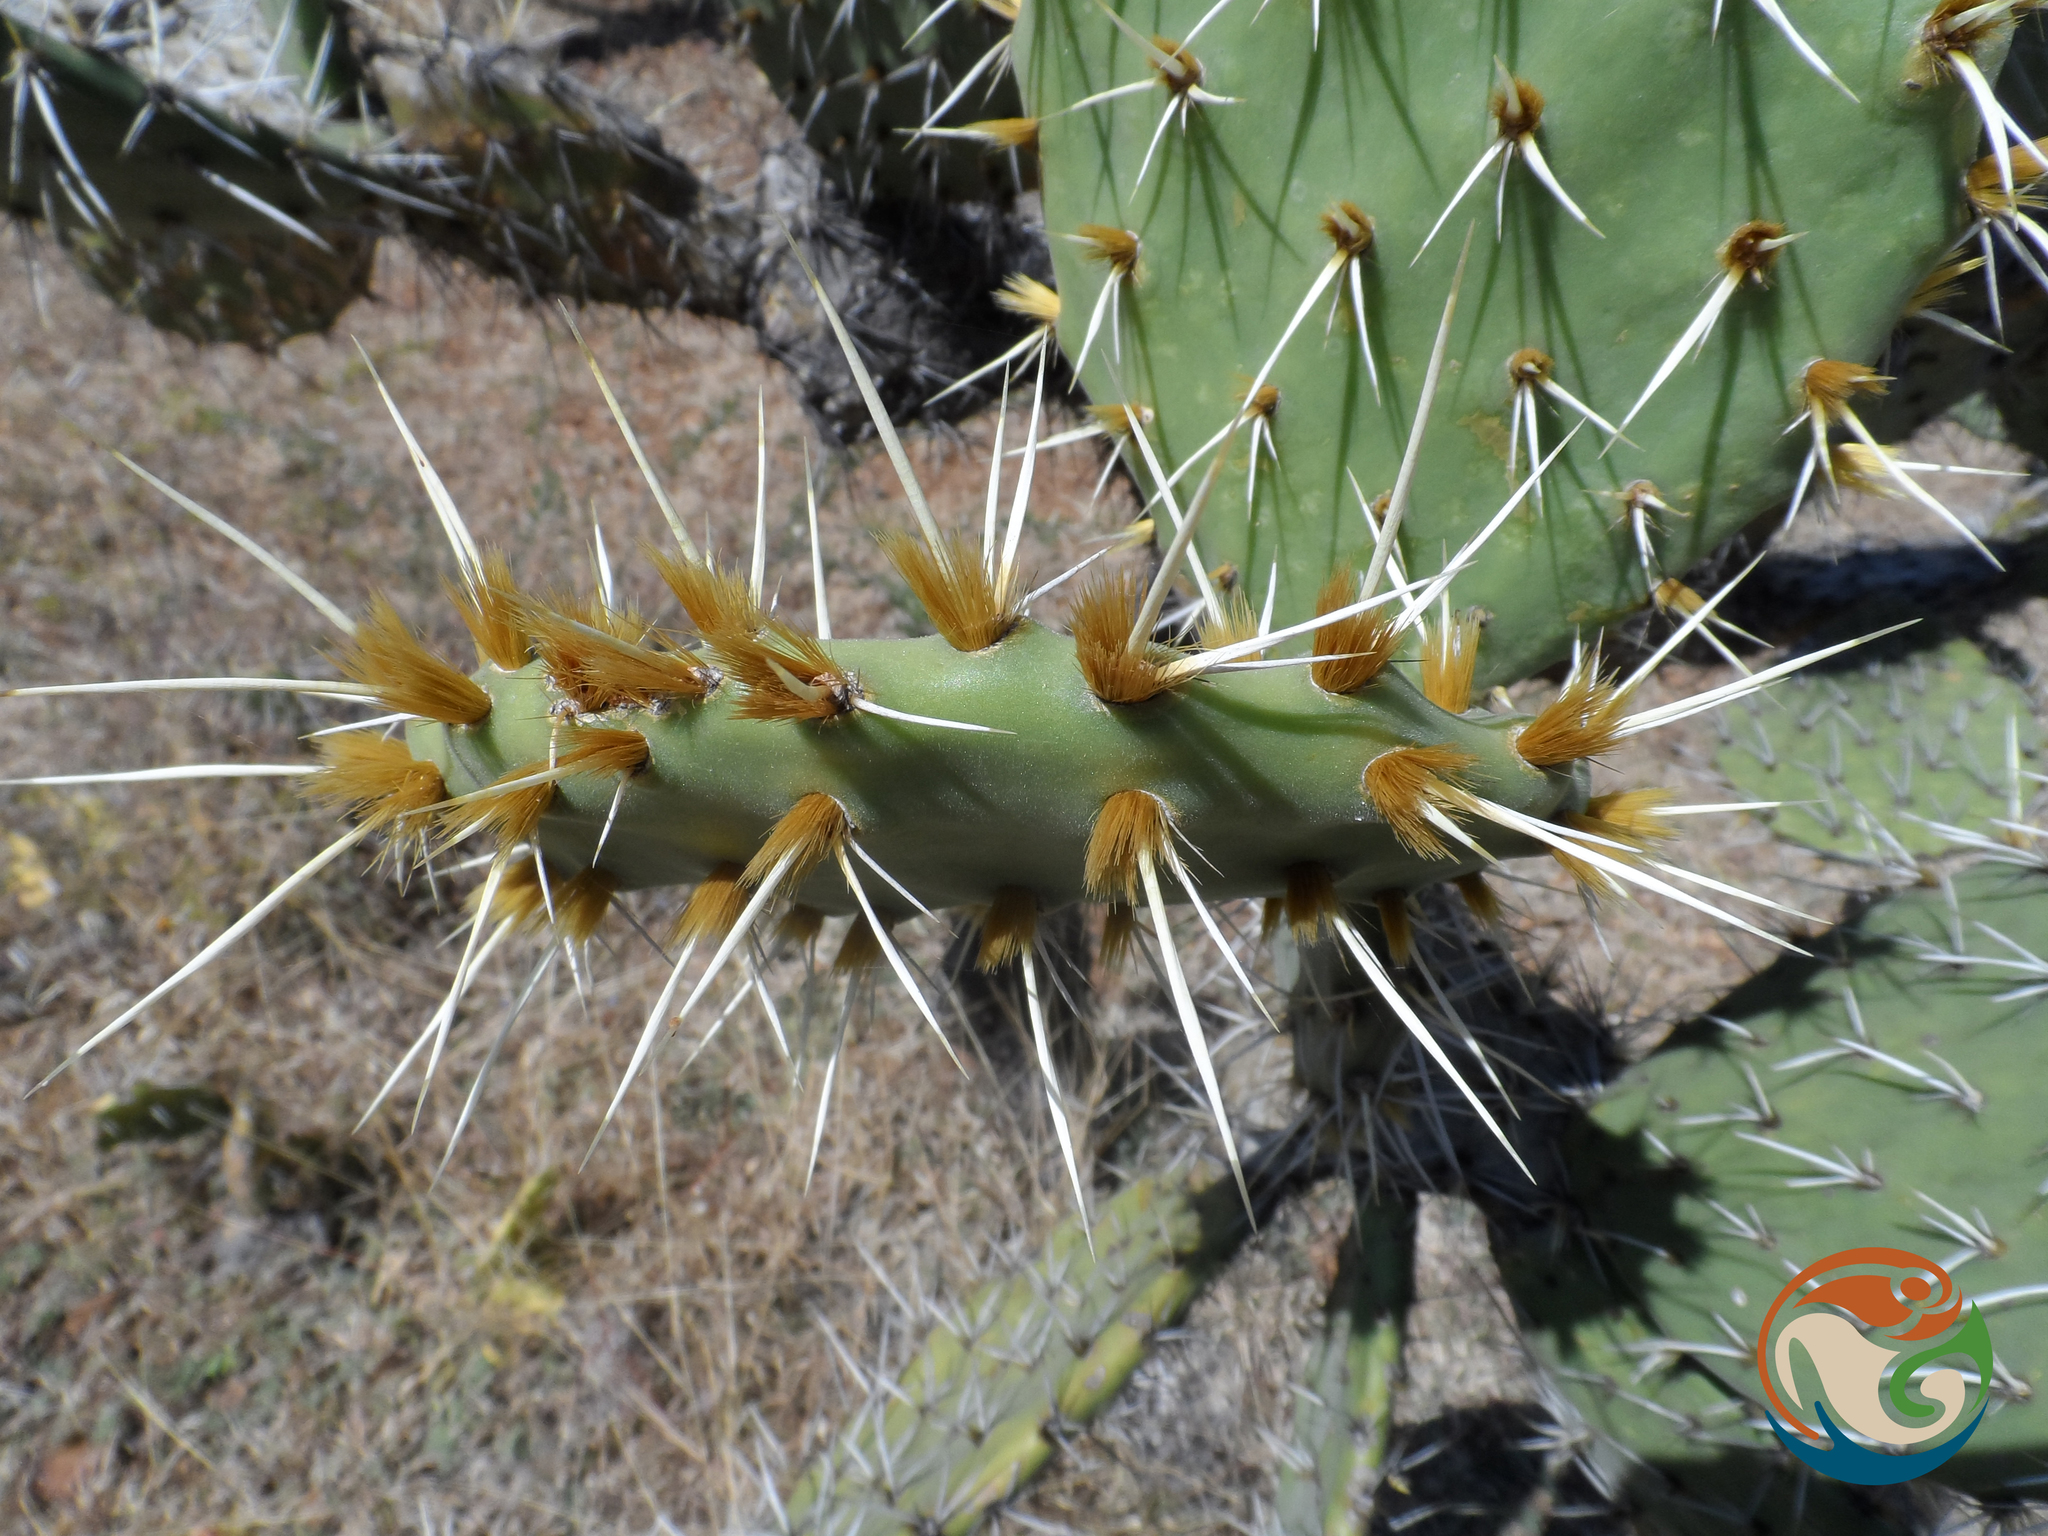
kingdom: Plantae
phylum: Tracheophyta
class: Magnoliopsida
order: Caryophyllales
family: Cactaceae
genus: Opuntia
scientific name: Opuntia velutina
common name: Velvet opuntia
